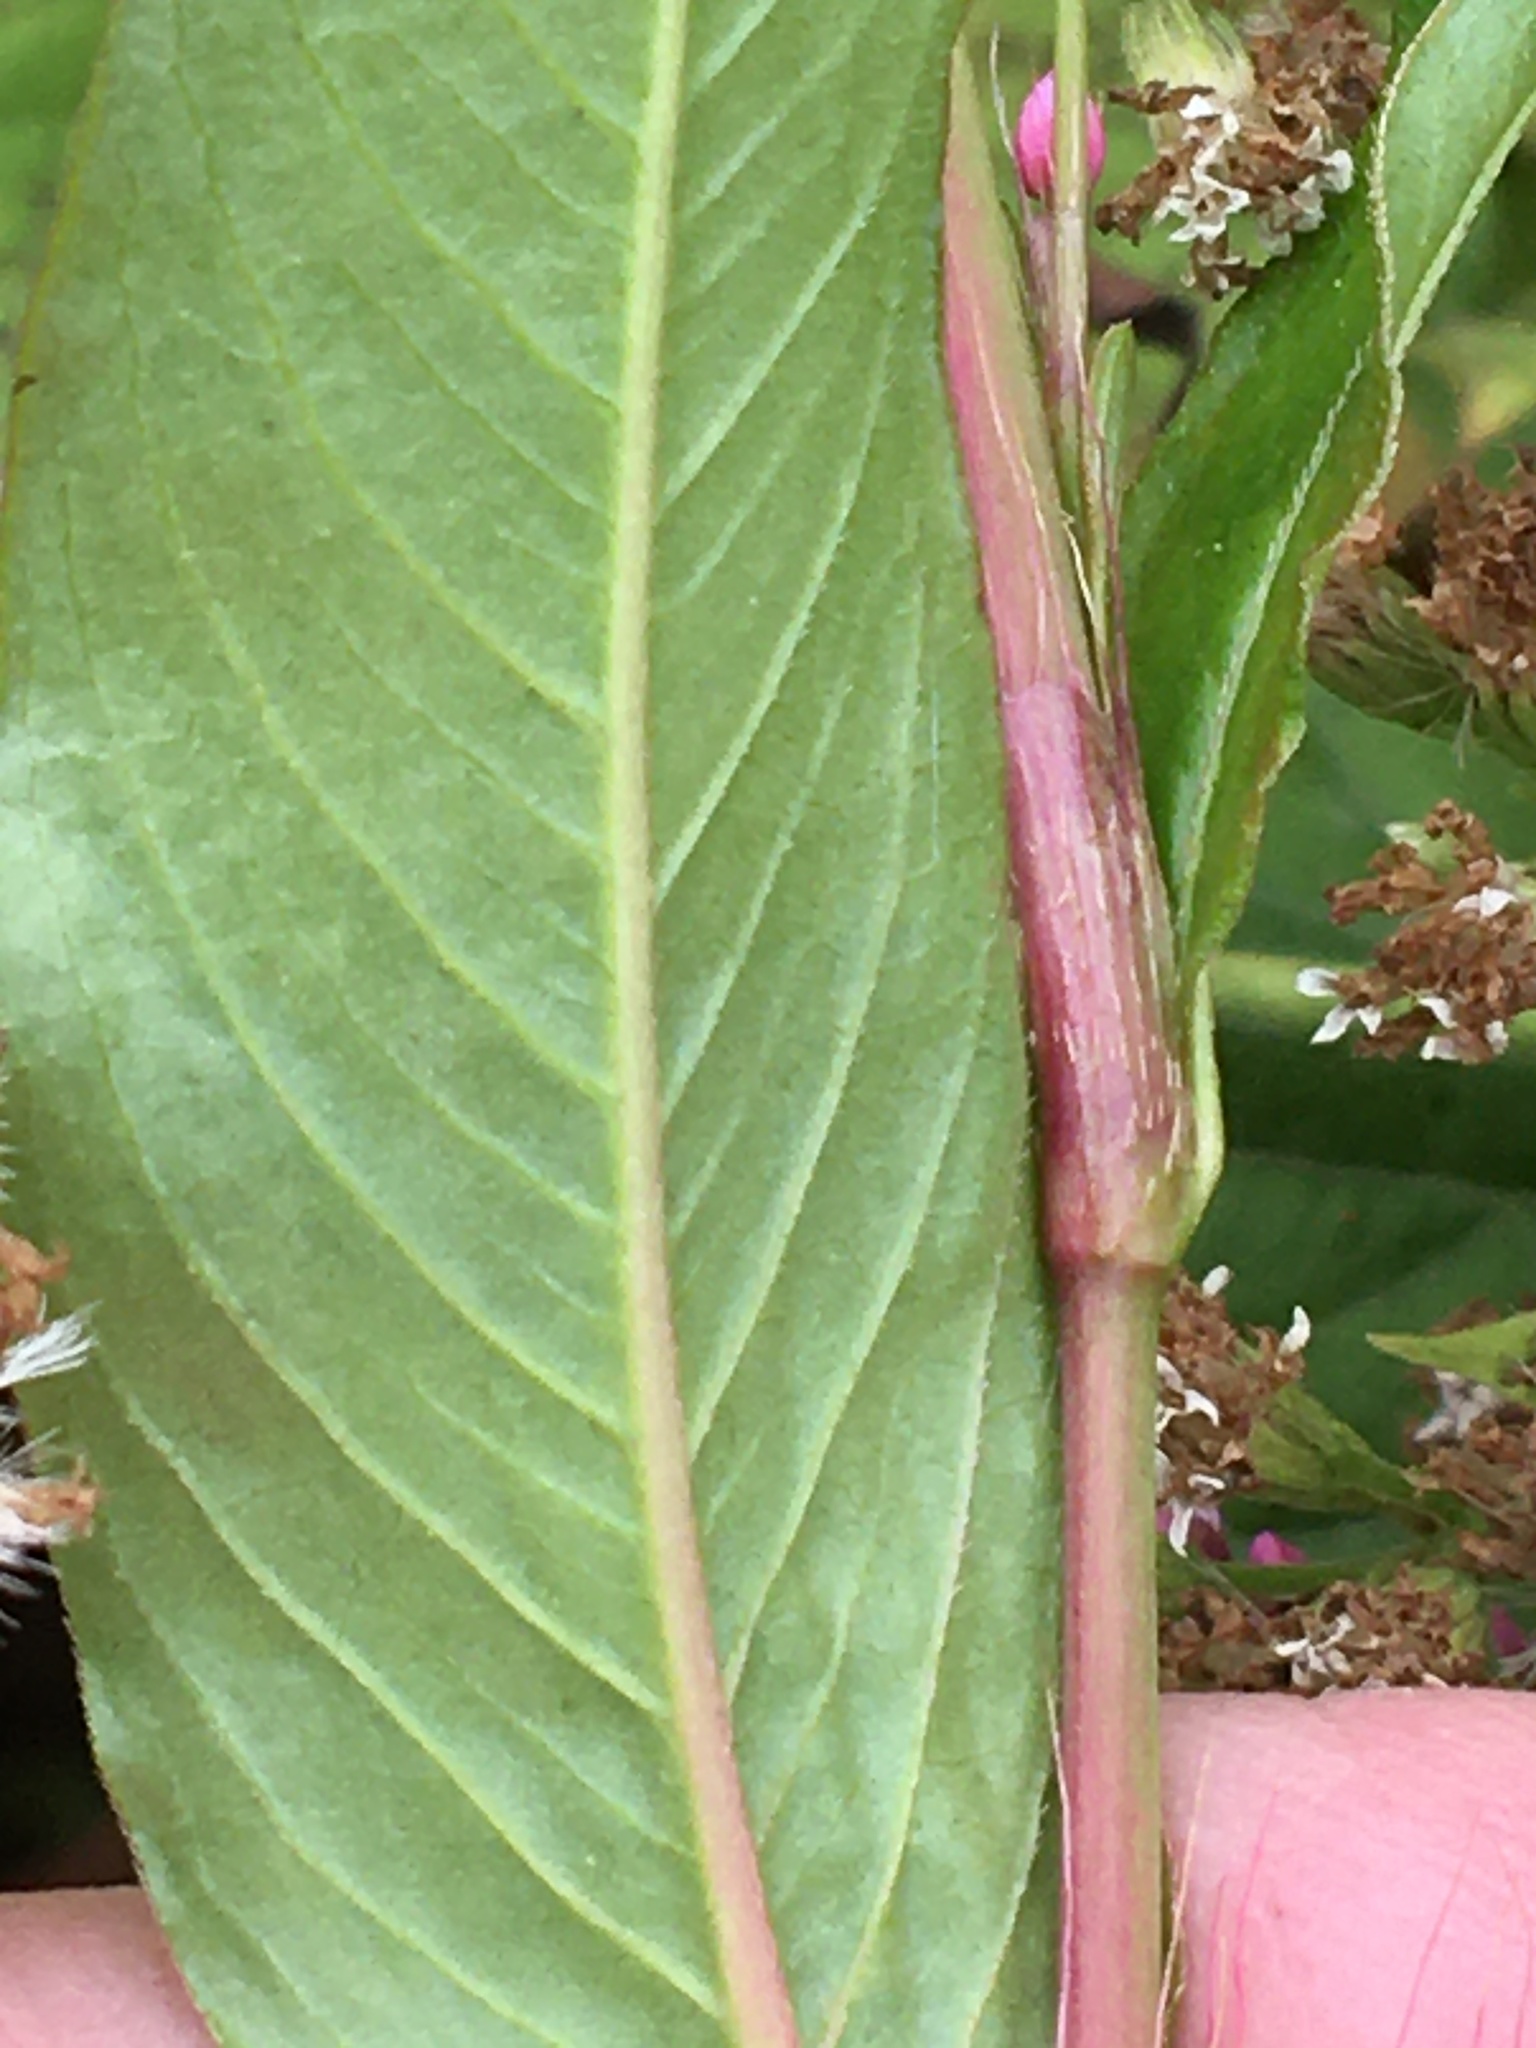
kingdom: Plantae
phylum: Tracheophyta
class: Magnoliopsida
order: Caryophyllales
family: Polygonaceae
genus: Persicaria
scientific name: Persicaria longiseta
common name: Bristly lady's-thumb
